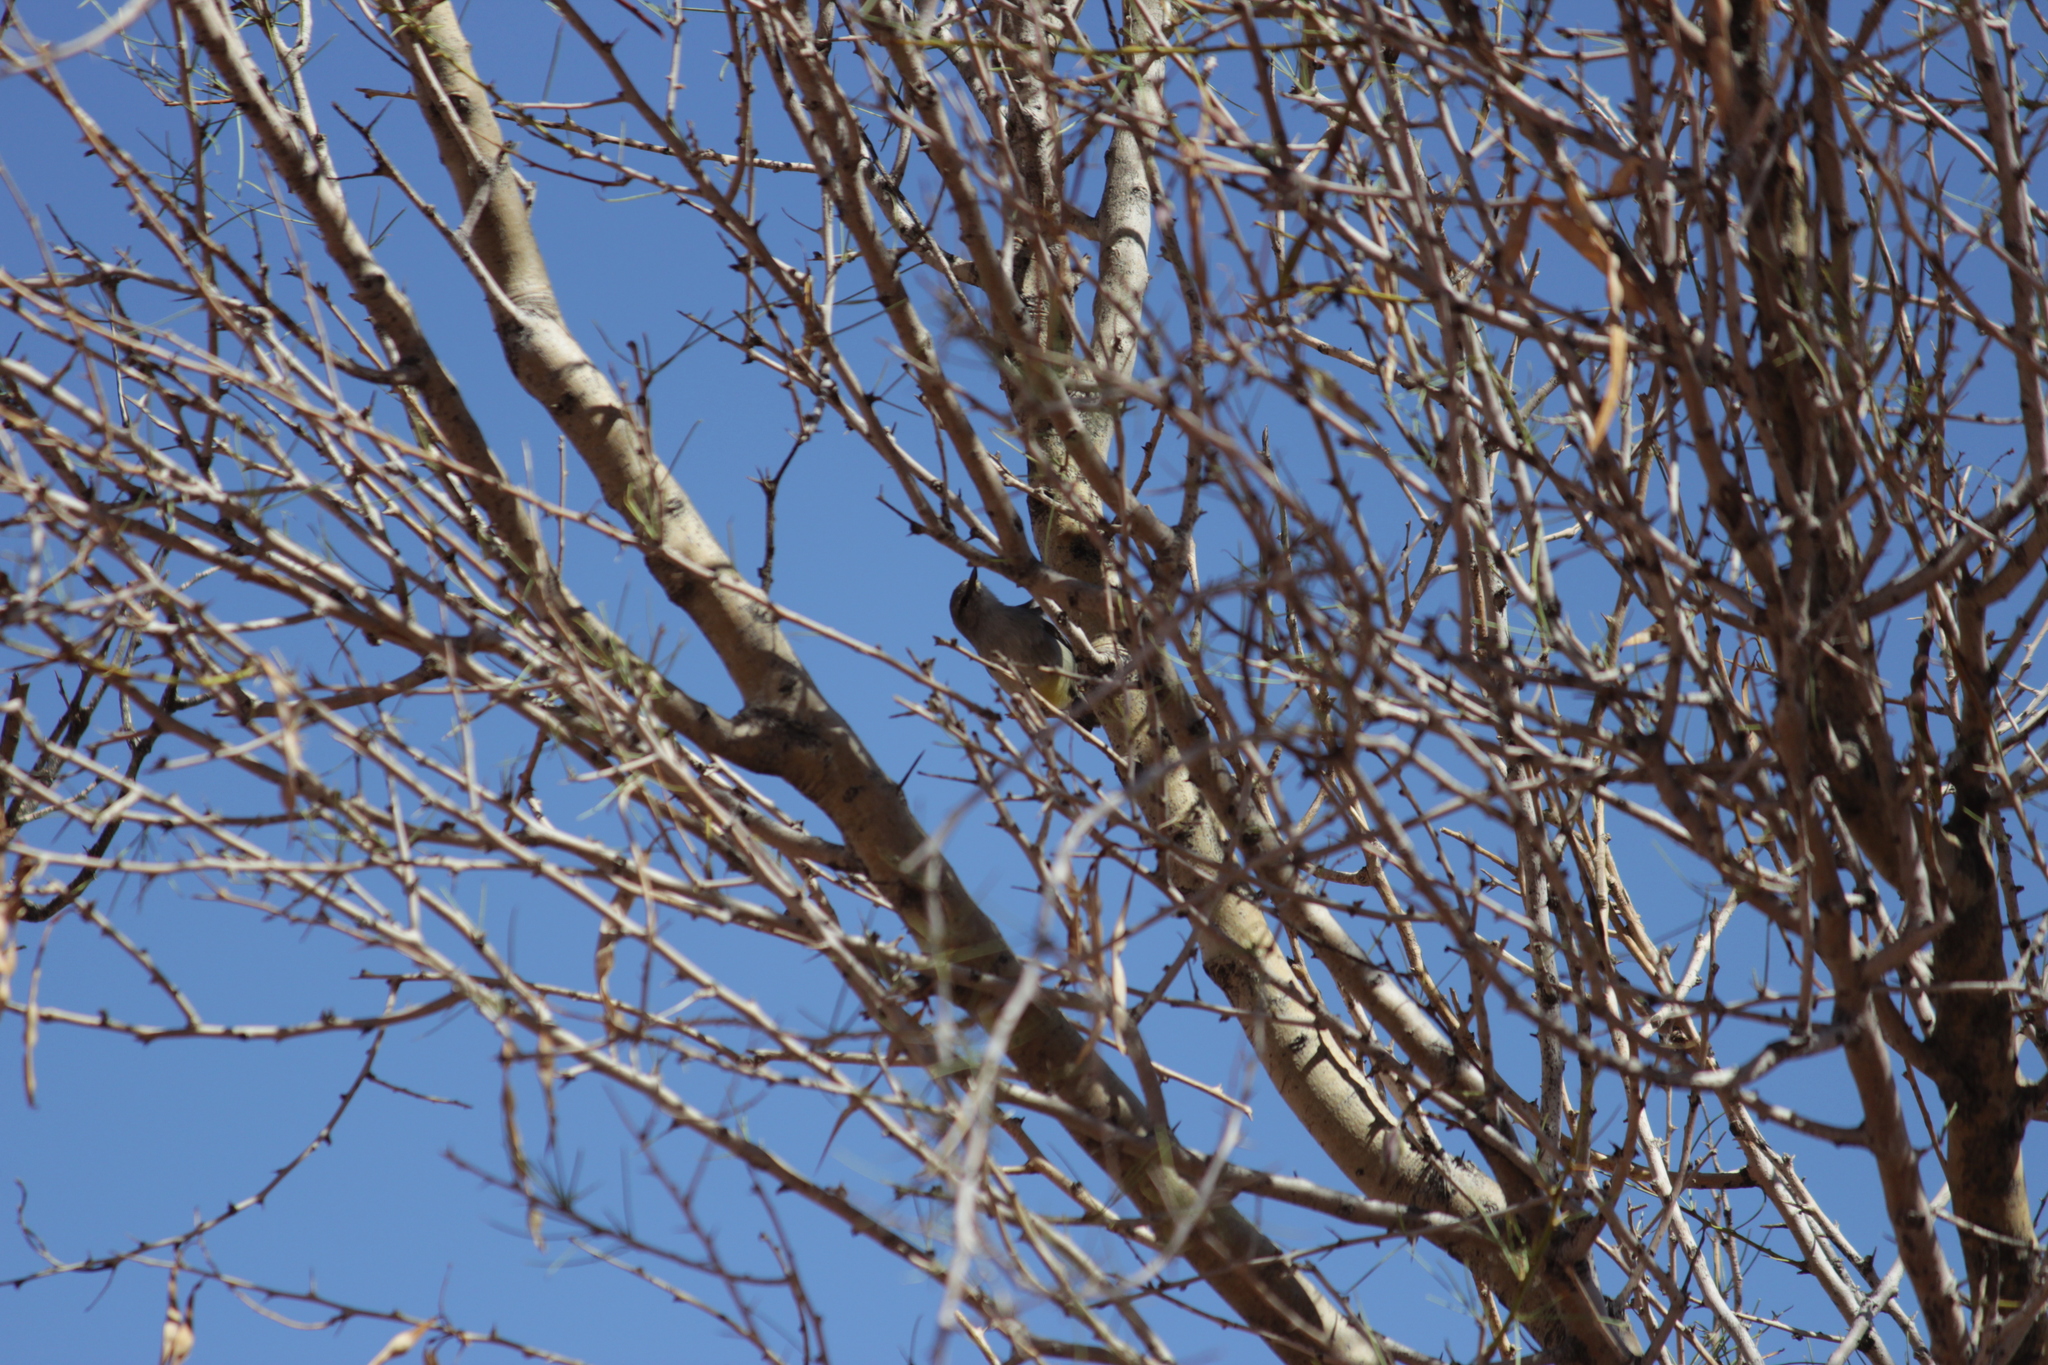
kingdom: Animalia
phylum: Chordata
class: Aves
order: Passeriformes
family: Cisticolidae
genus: Eremomela
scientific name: Eremomela icteropygialis
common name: Yellow-bellied eremomela
